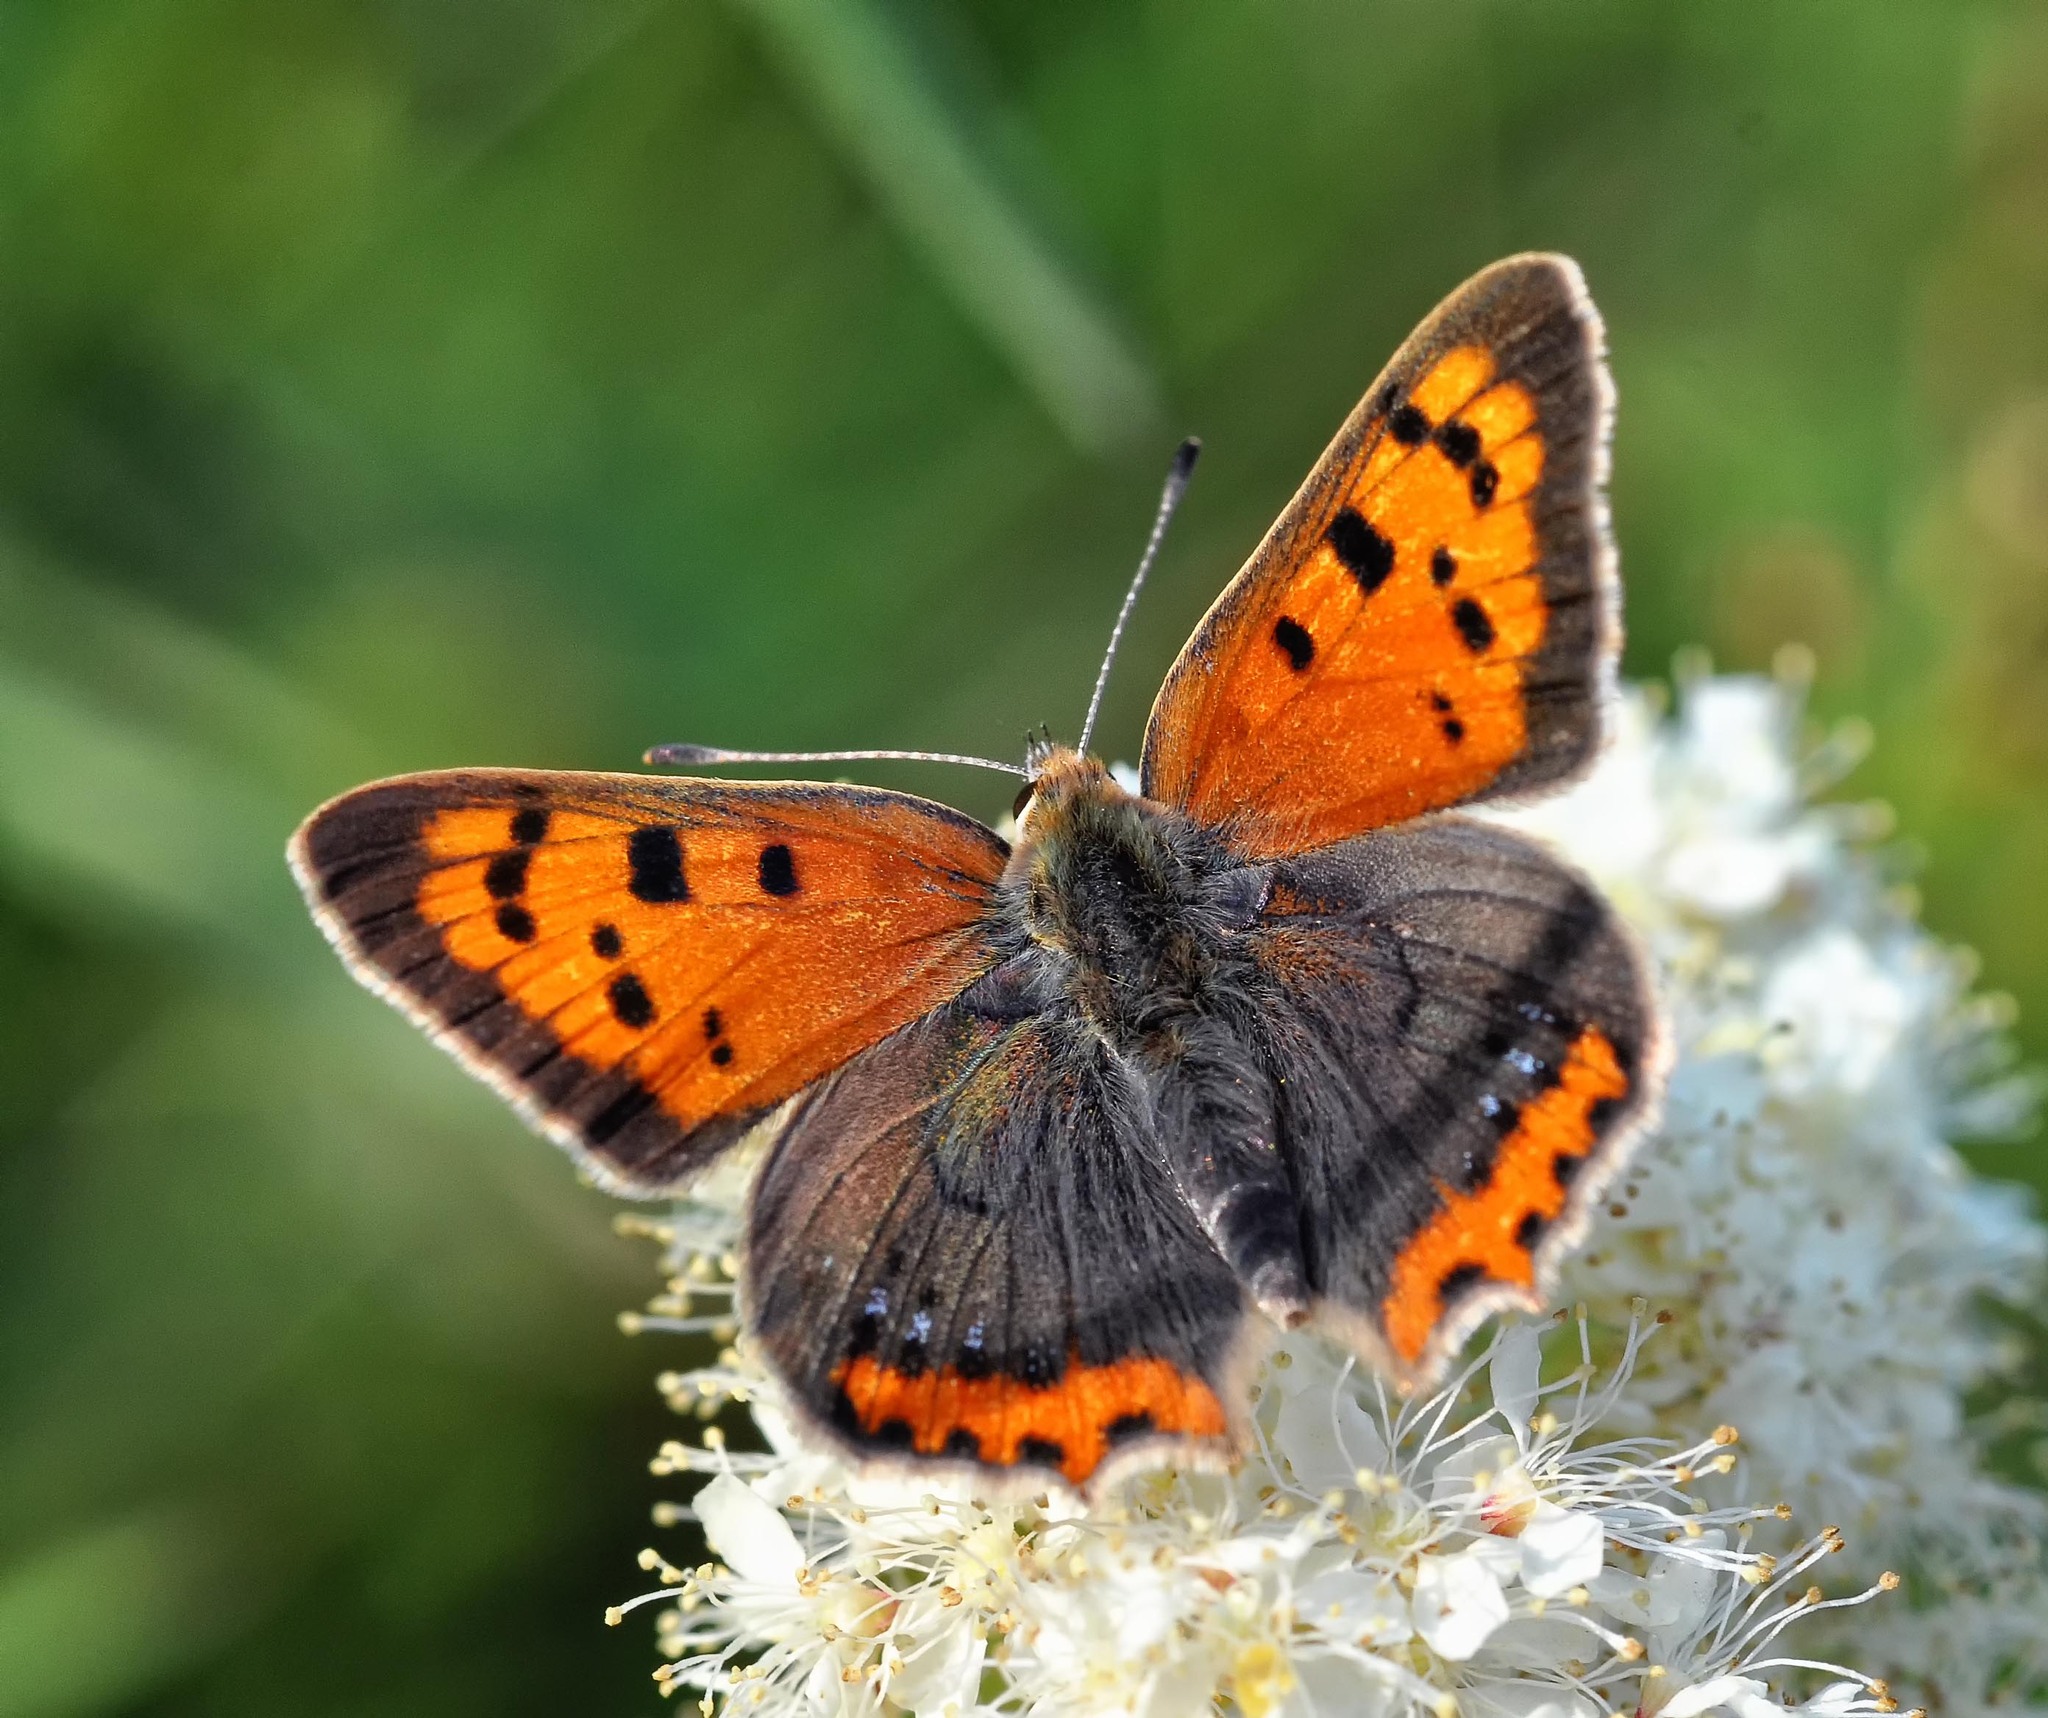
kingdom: Animalia
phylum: Arthropoda
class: Insecta
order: Lepidoptera
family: Lycaenidae
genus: Lycaena
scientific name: Lycaena phlaeas
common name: Small copper
